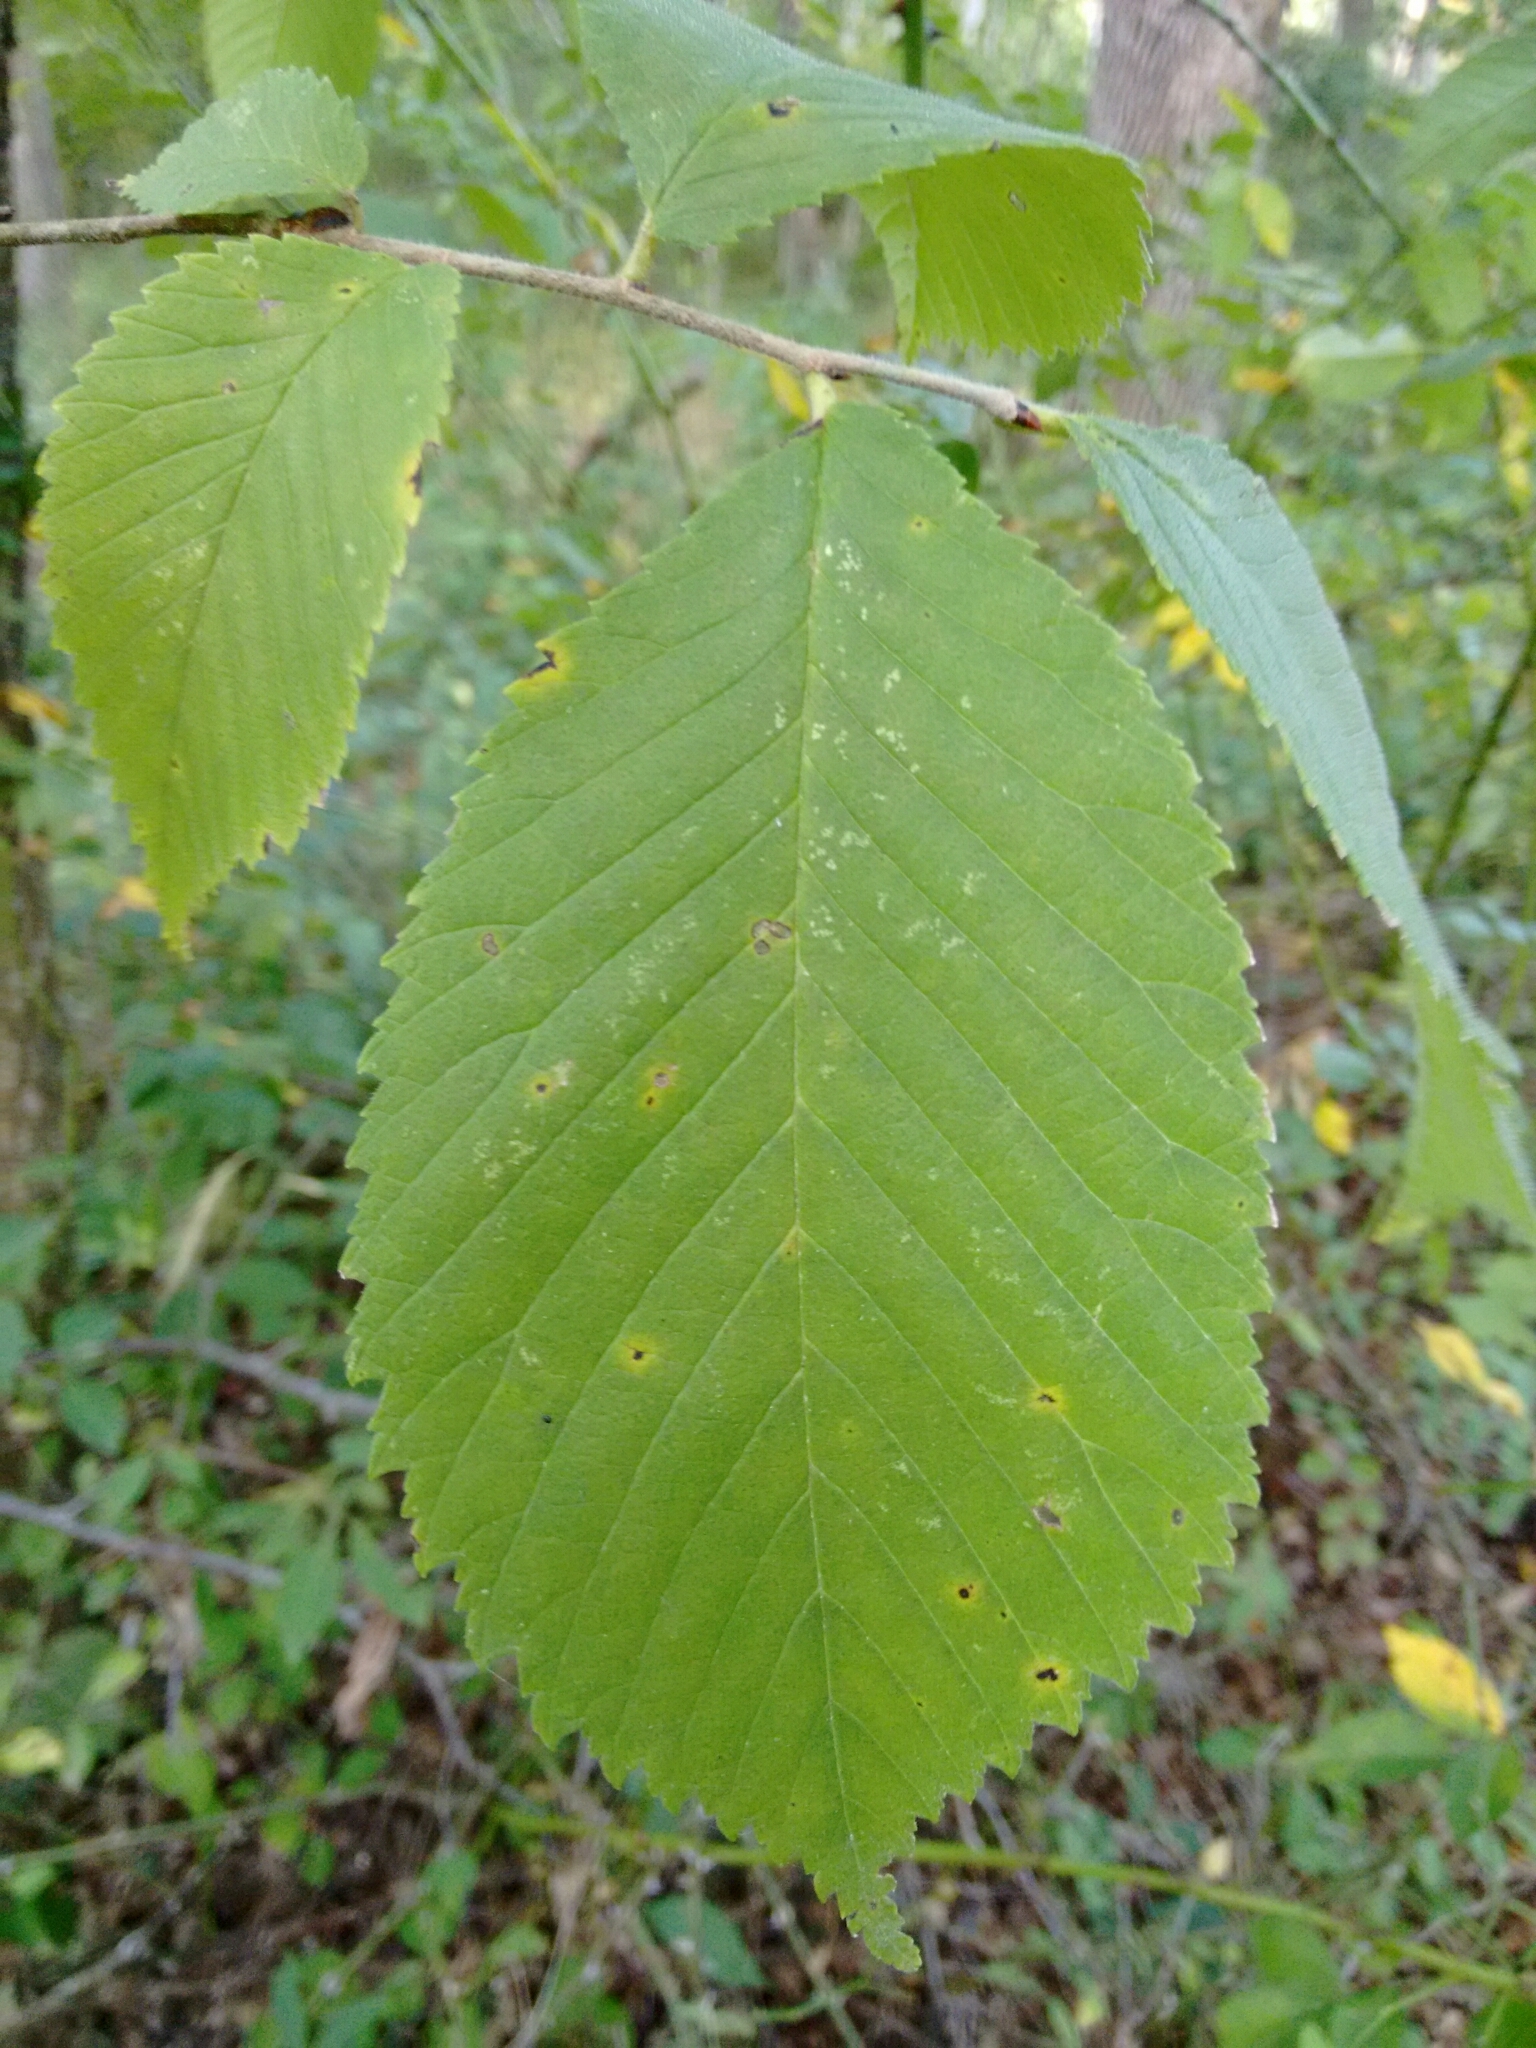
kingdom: Plantae
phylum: Tracheophyta
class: Magnoliopsida
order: Rosales
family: Ulmaceae
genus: Ulmus
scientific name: Ulmus rubra
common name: Slippery elm
